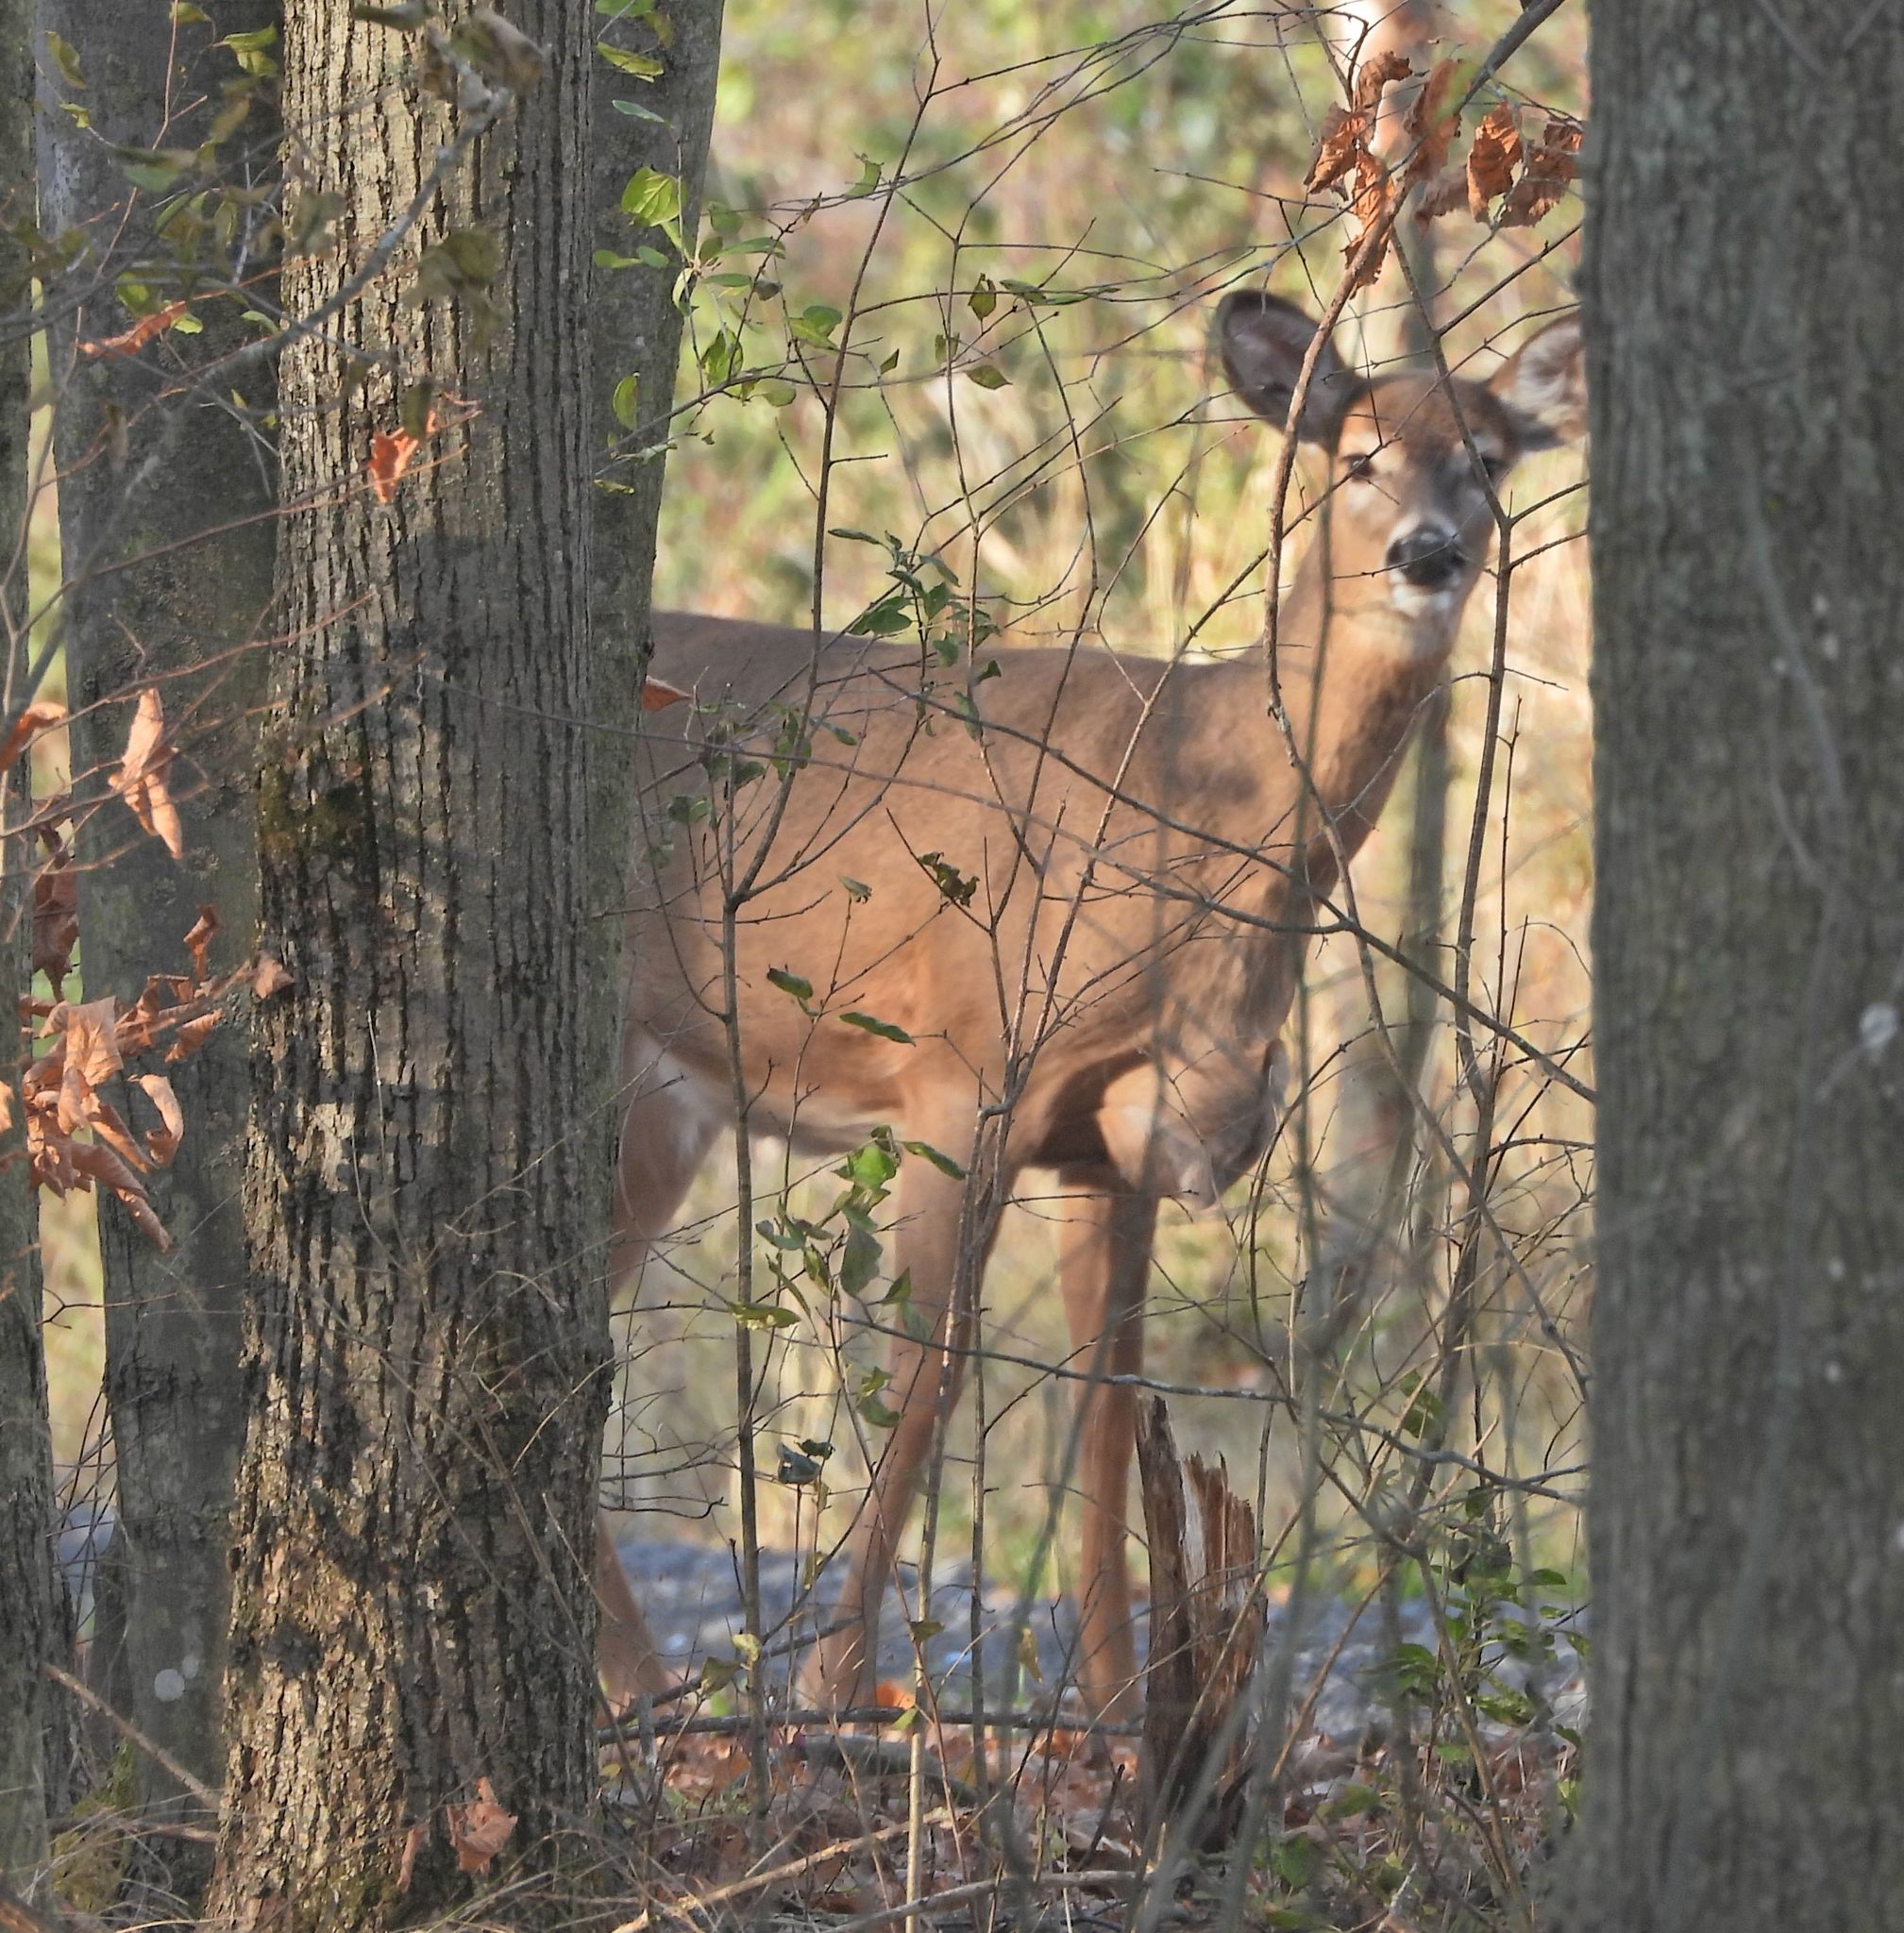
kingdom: Animalia
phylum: Chordata
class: Mammalia
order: Artiodactyla
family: Cervidae
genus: Odocoileus
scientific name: Odocoileus virginianus
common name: White-tailed deer
